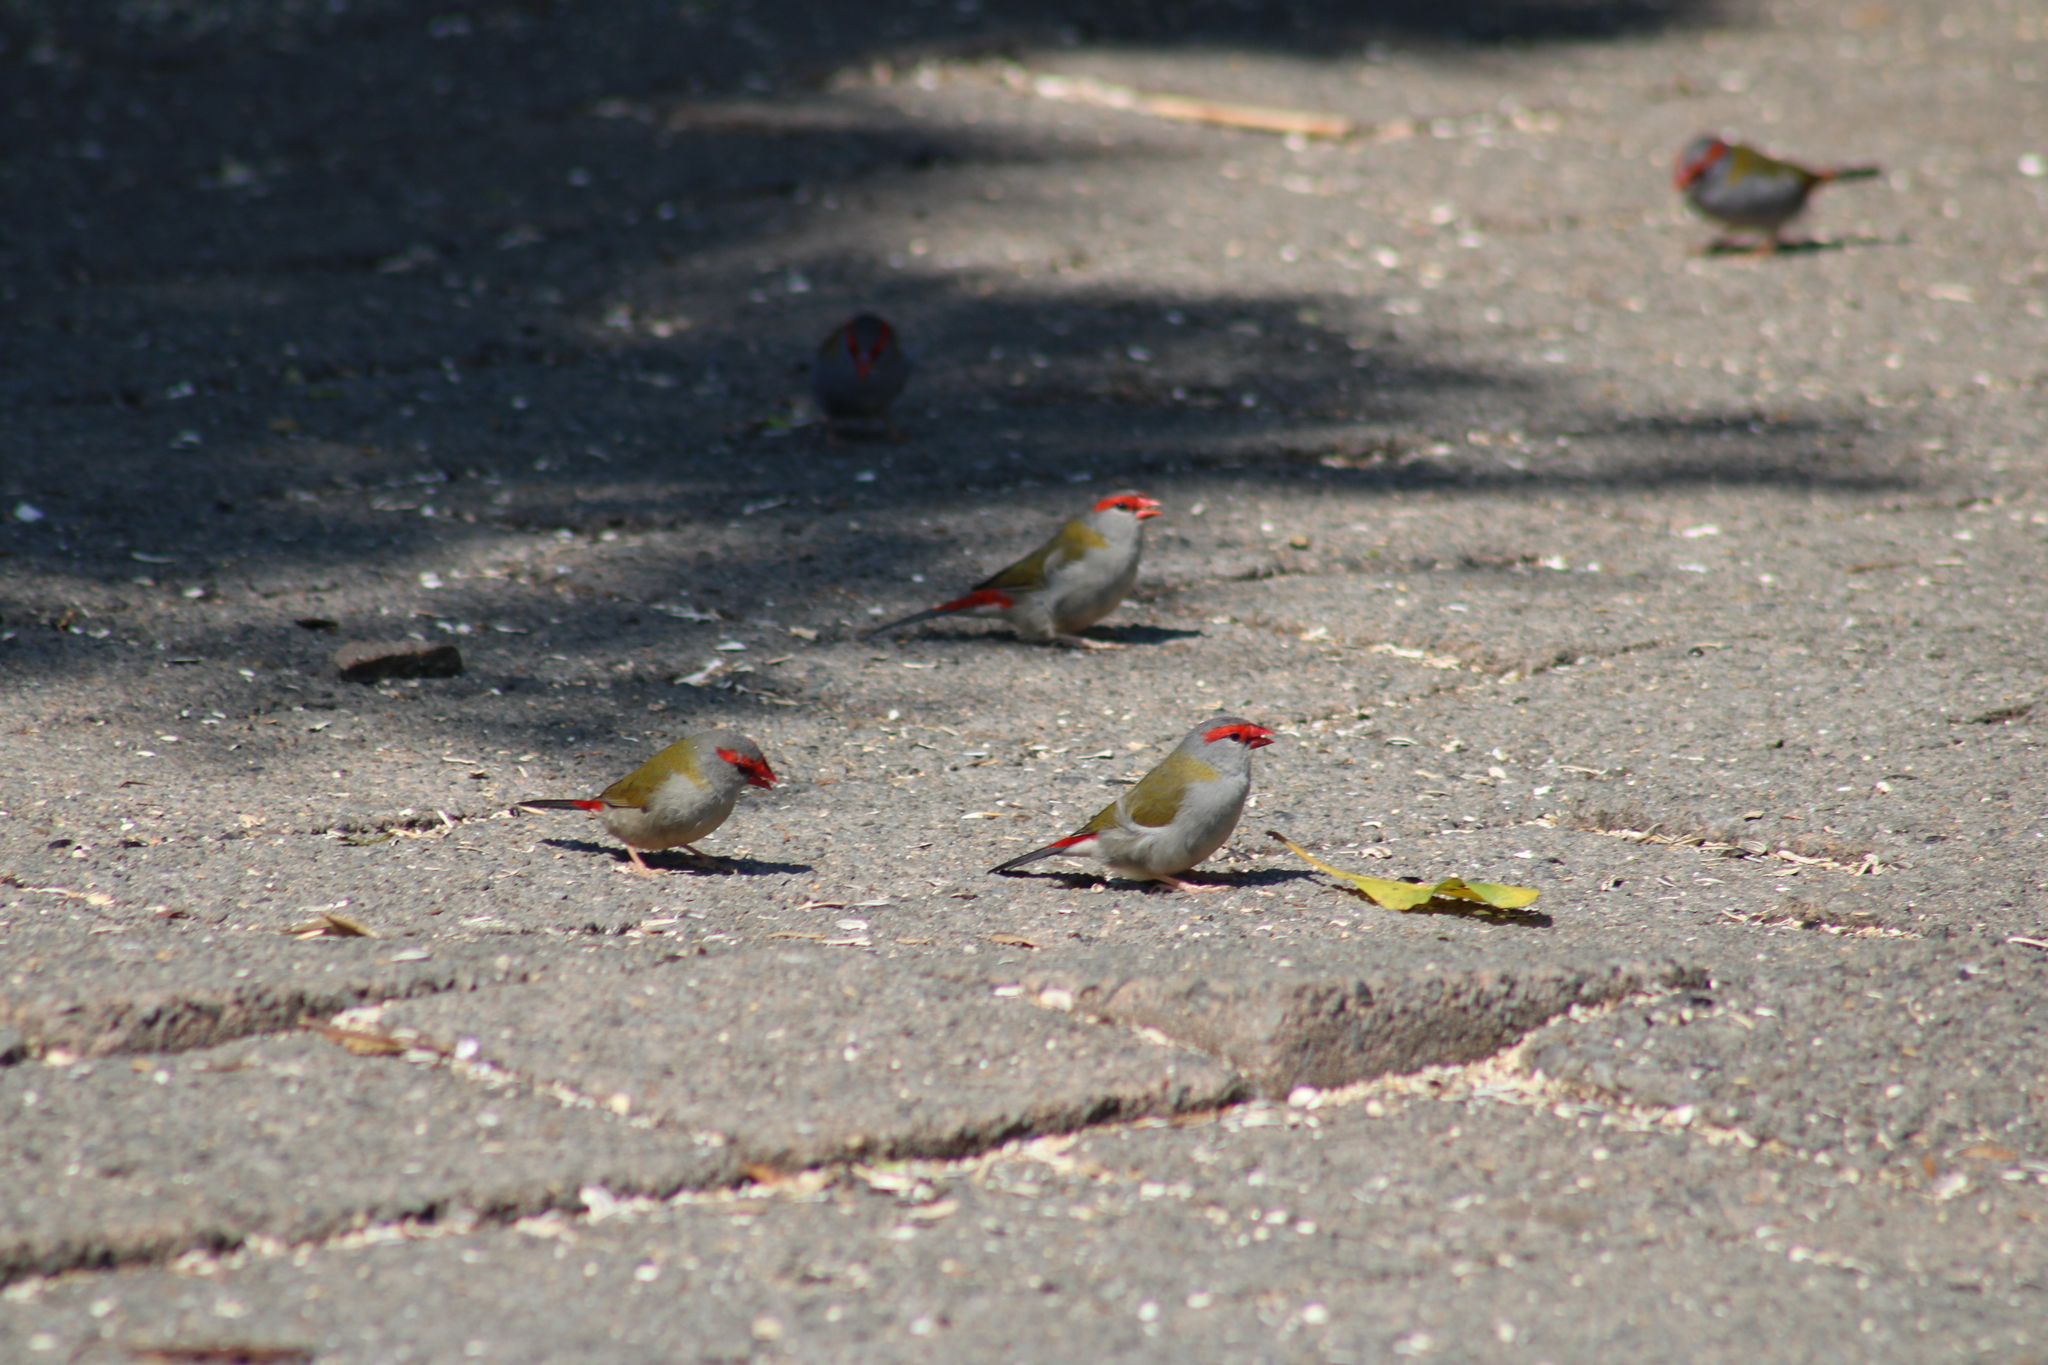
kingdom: Animalia
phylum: Chordata
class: Aves
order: Passeriformes
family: Estrildidae
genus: Neochmia
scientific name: Neochmia temporalis
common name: Red-browed finch
